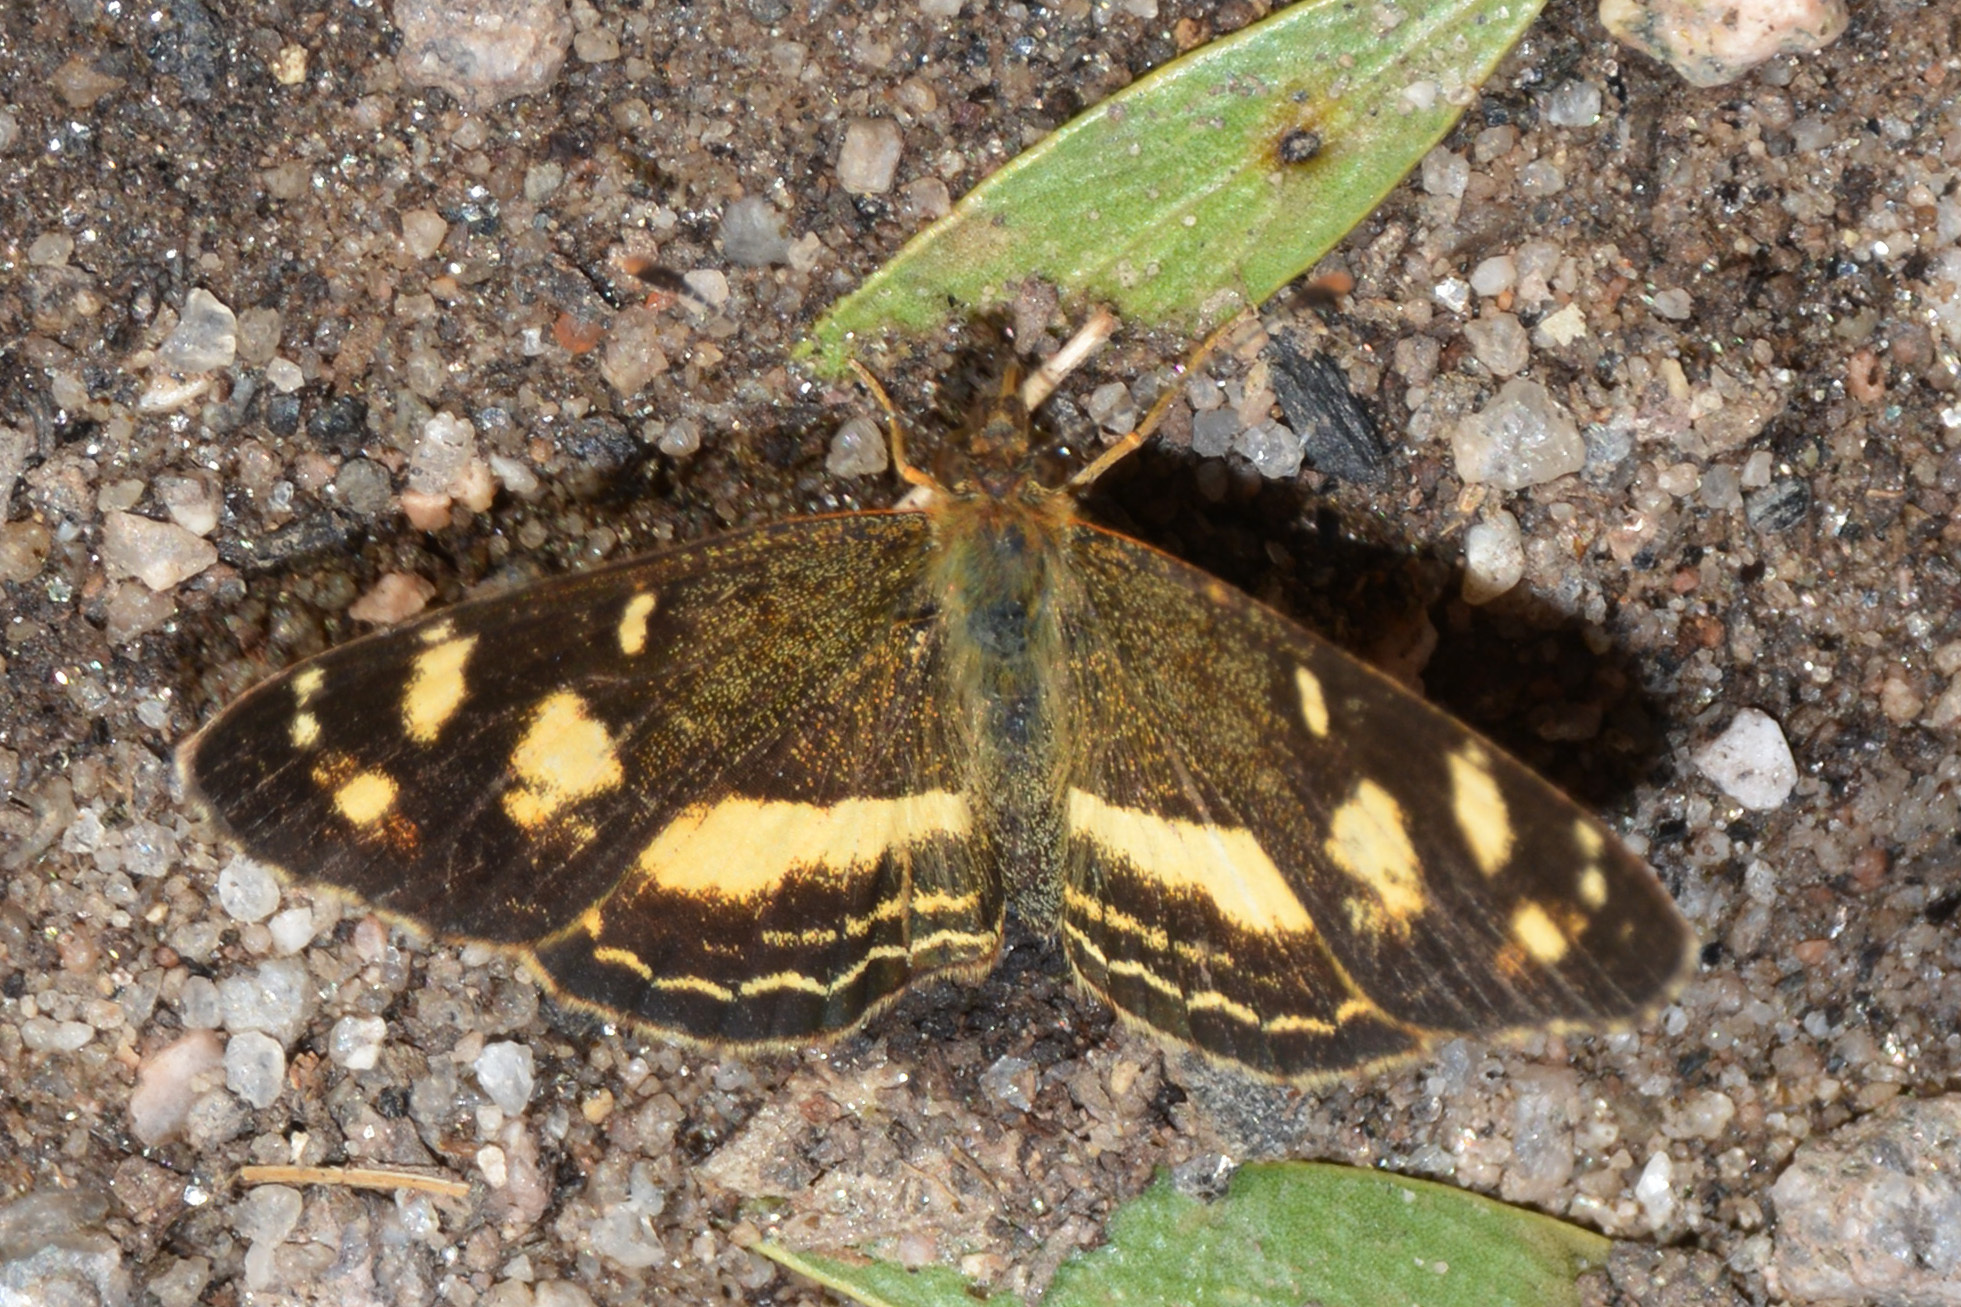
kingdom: Animalia
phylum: Arthropoda
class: Insecta
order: Lepidoptera
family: Nymphalidae
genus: Telenassa
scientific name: Telenassa berenice
